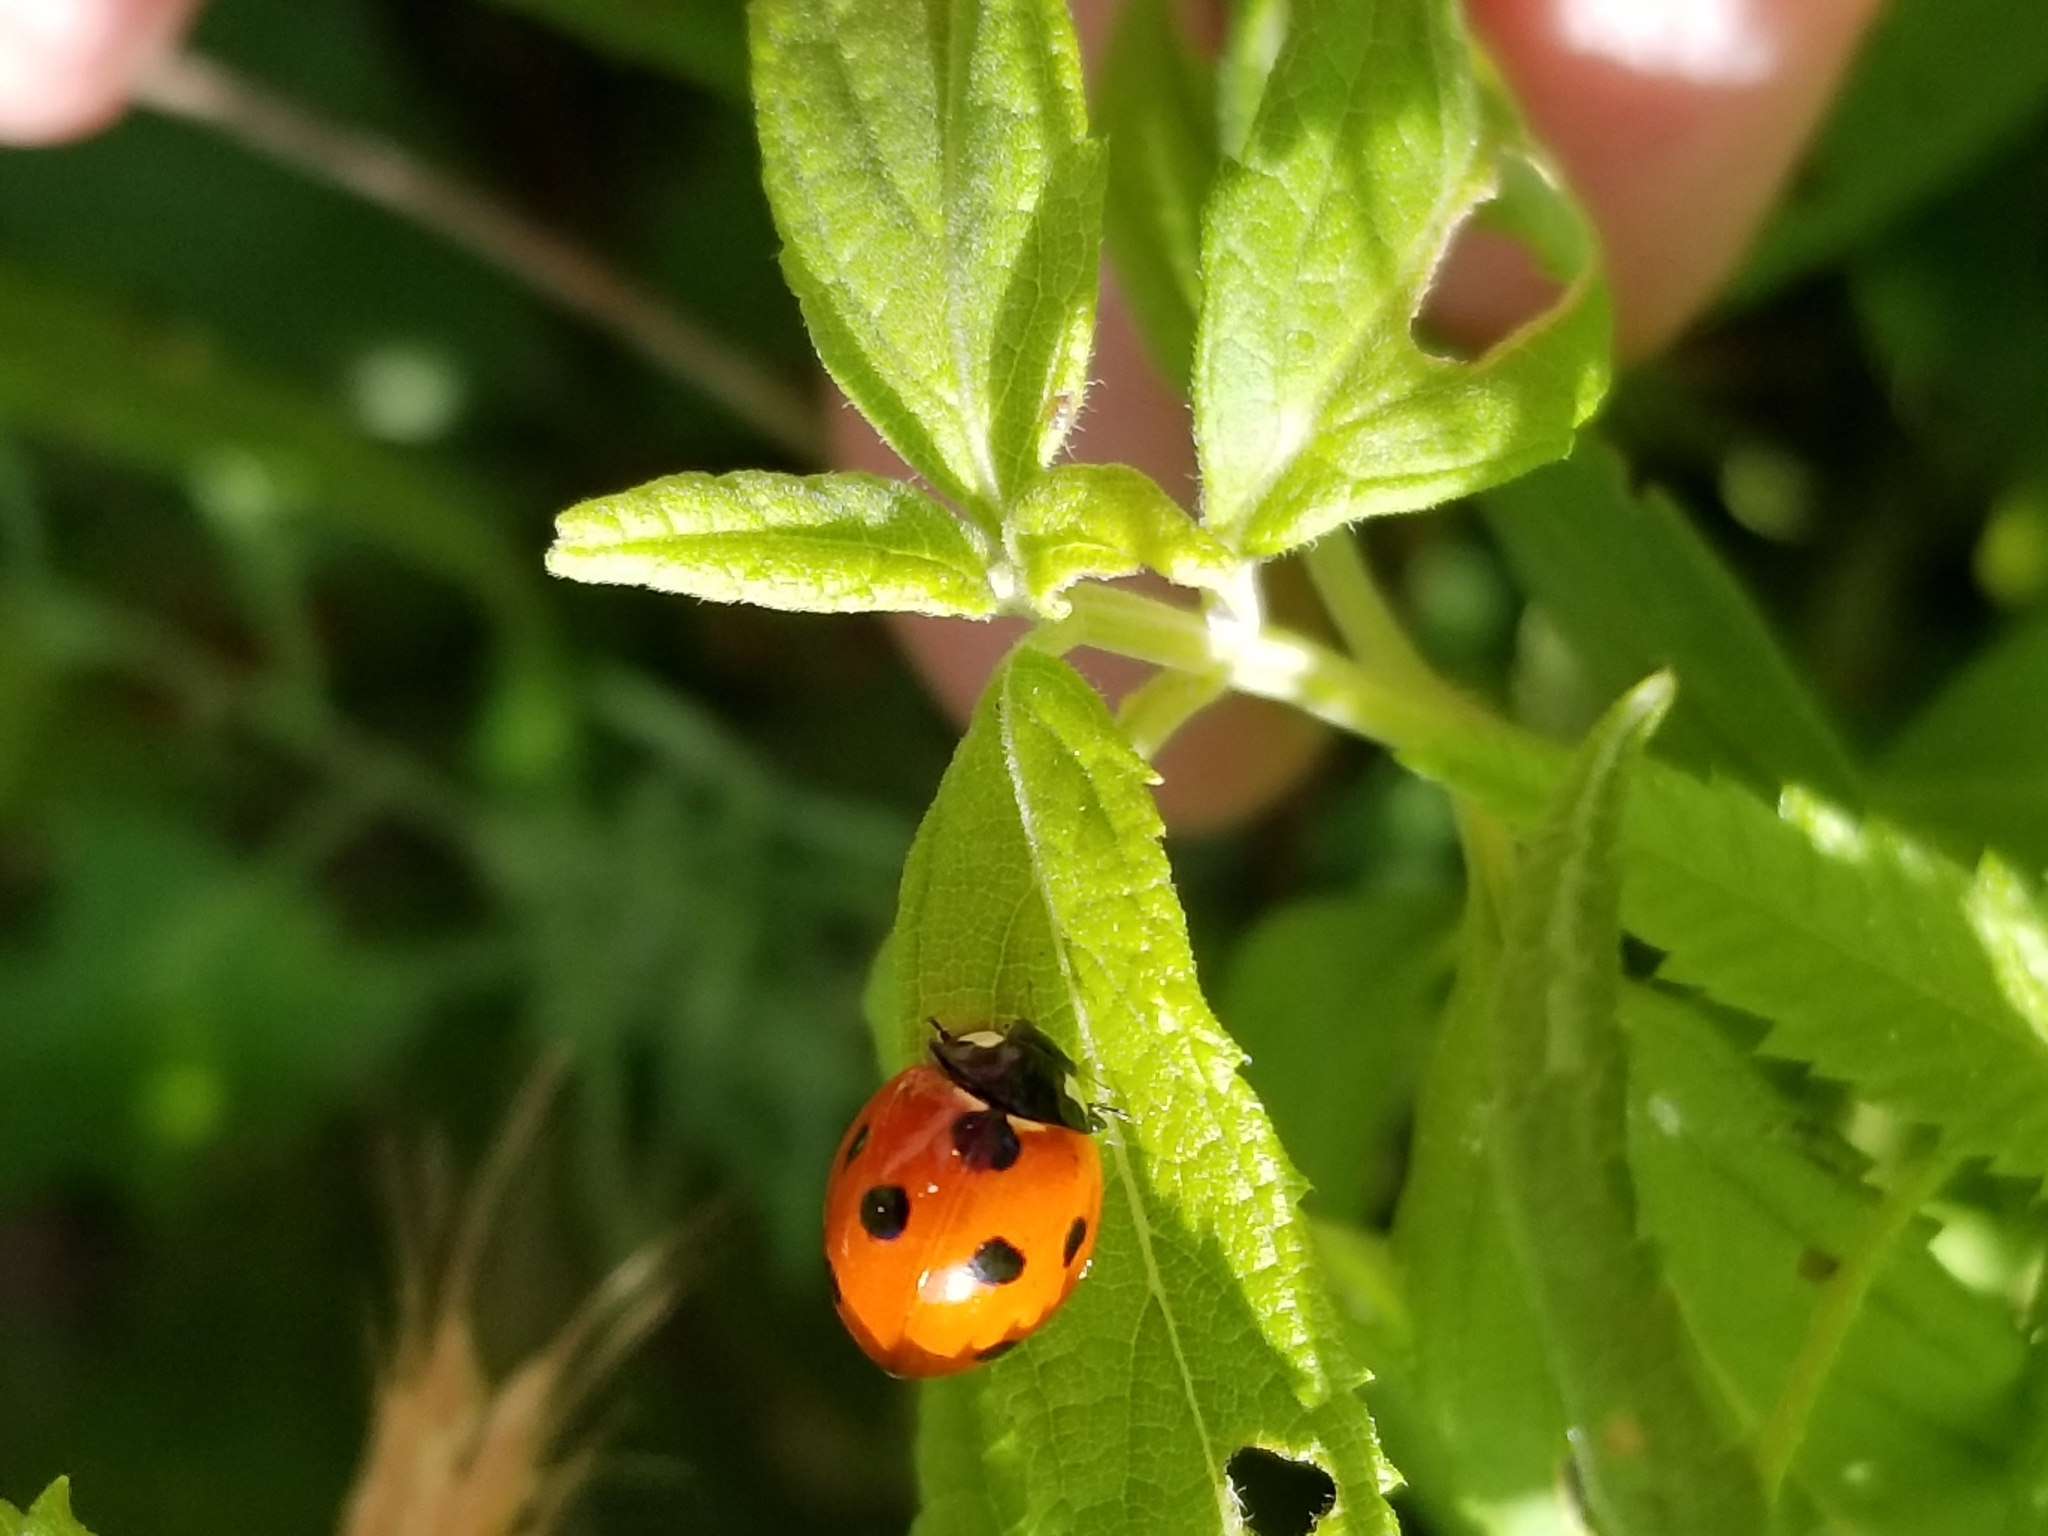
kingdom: Animalia
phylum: Arthropoda
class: Insecta
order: Coleoptera
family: Coccinellidae
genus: Coccinella
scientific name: Coccinella septempunctata
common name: Sevenspotted lady beetle
